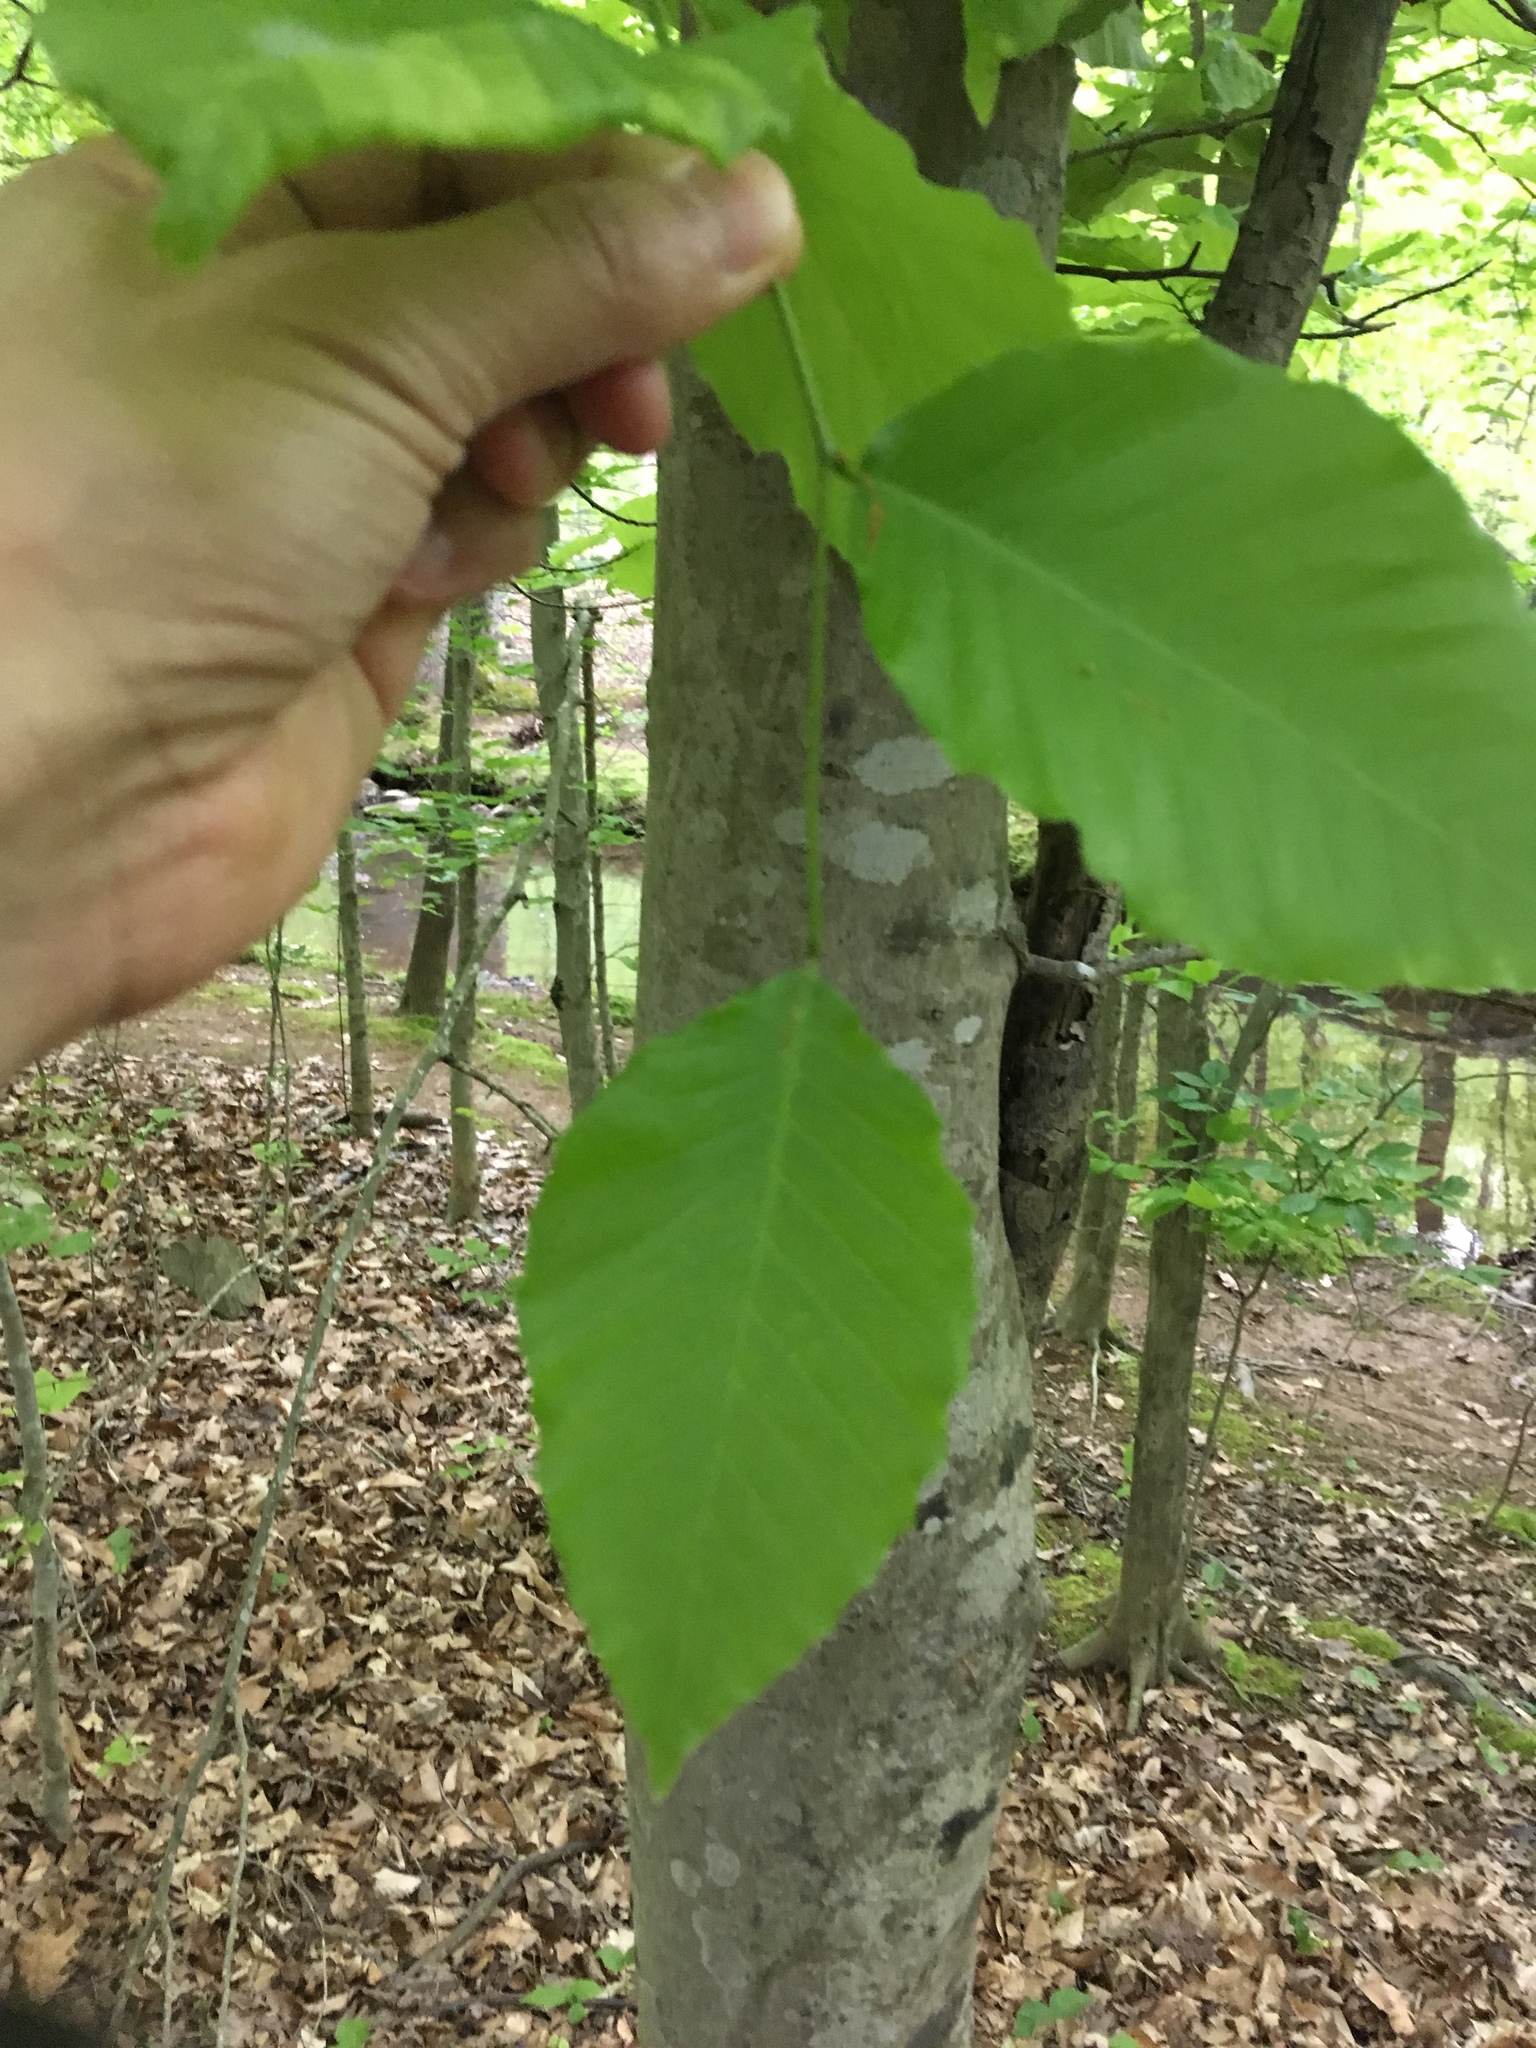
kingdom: Plantae
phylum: Tracheophyta
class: Magnoliopsida
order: Fagales
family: Fagaceae
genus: Fagus
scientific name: Fagus grandifolia
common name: American beech
